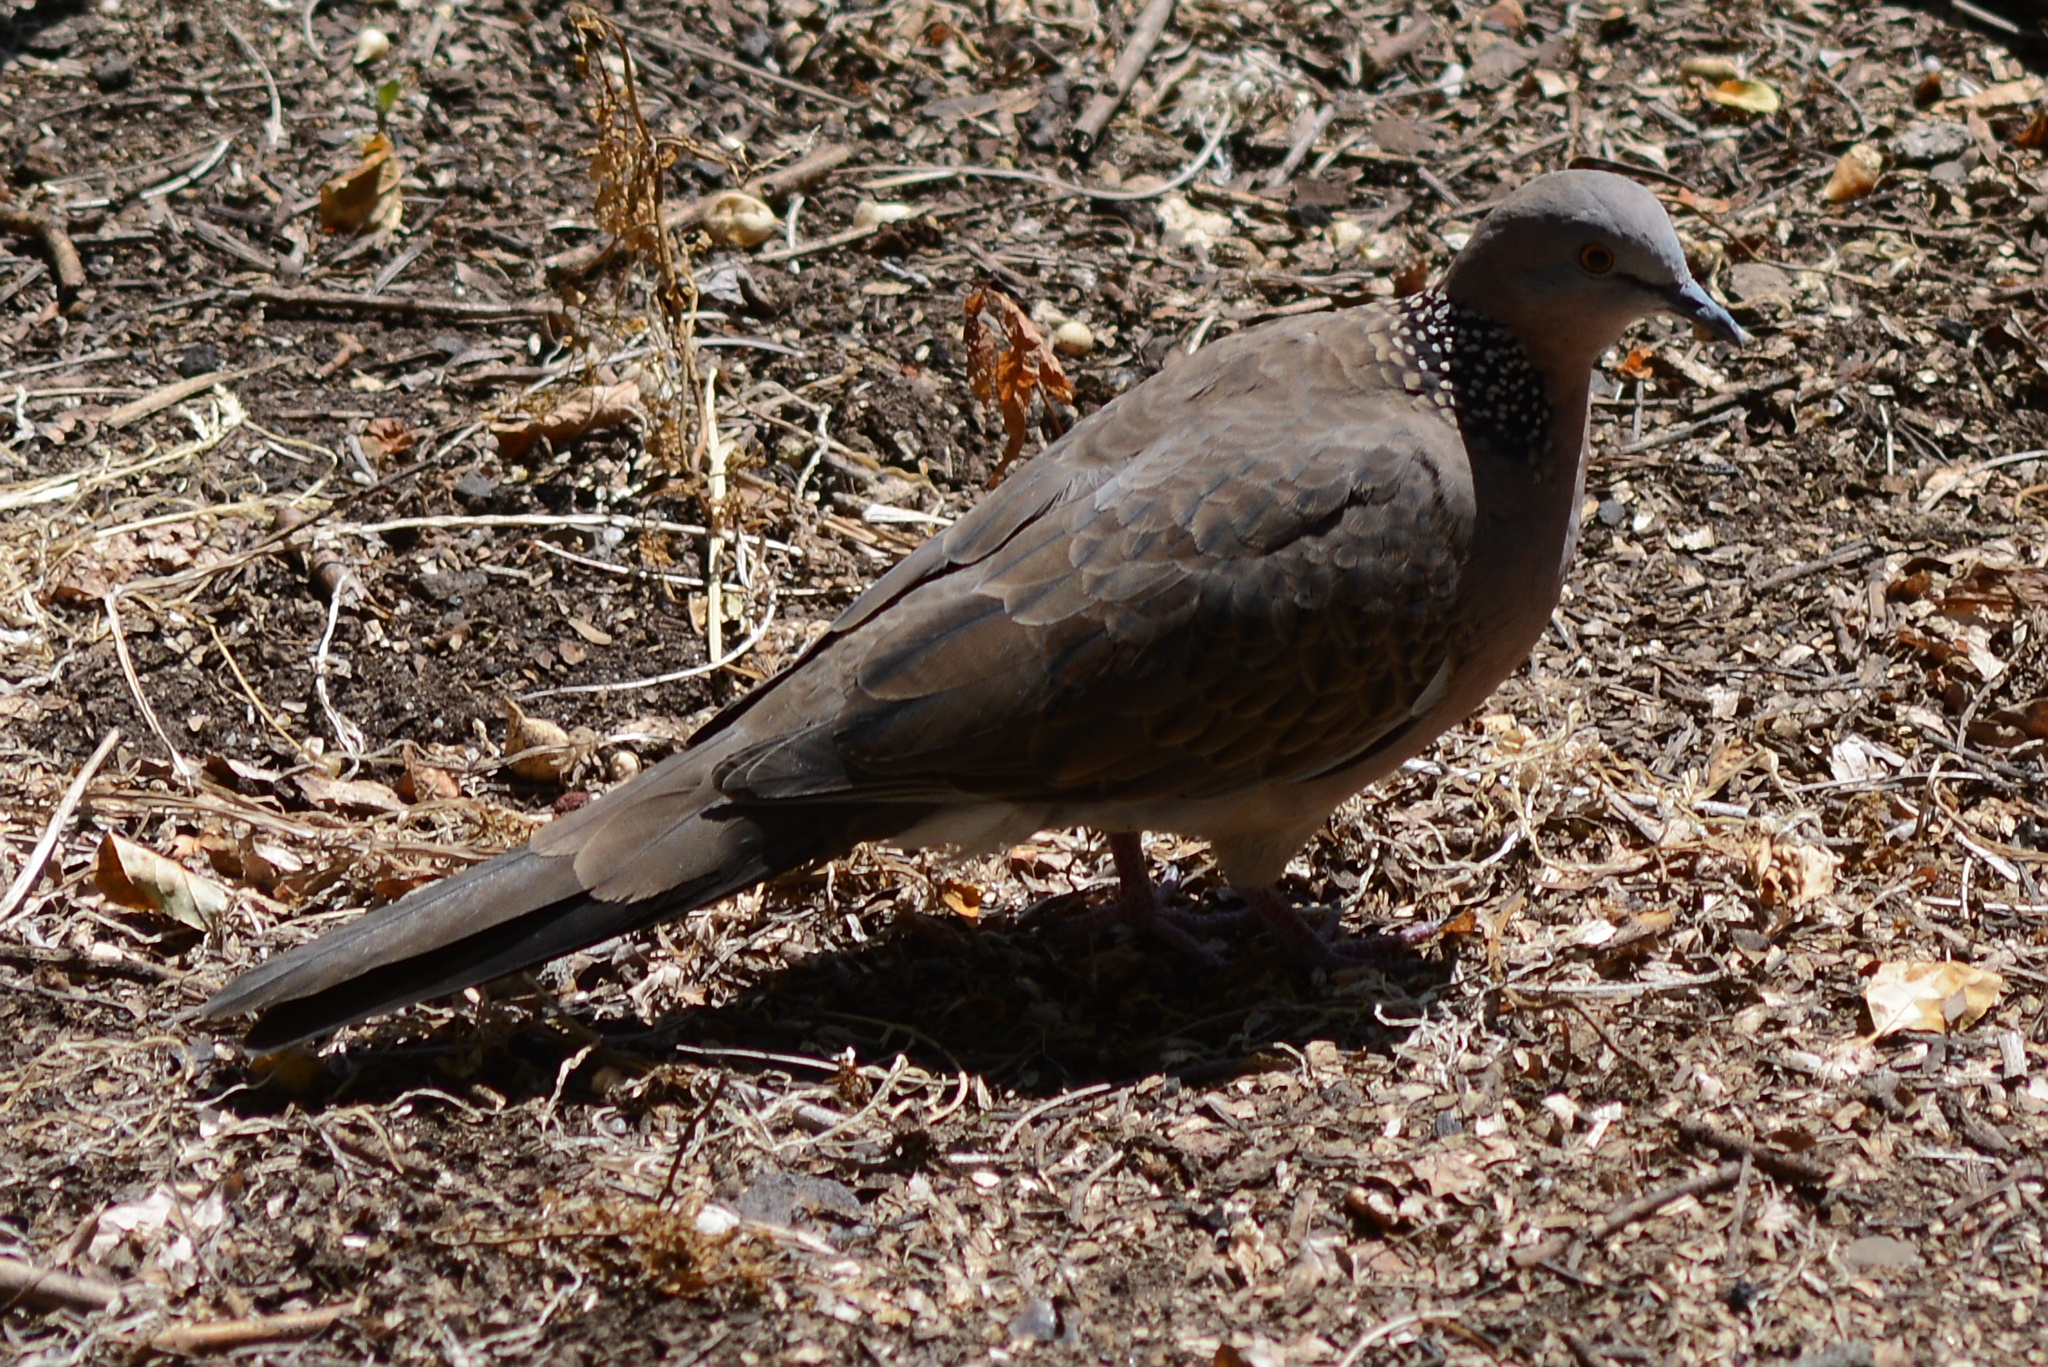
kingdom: Animalia
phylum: Chordata
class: Aves
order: Columbiformes
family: Columbidae
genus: Spilopelia
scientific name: Spilopelia chinensis
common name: Spotted dove
